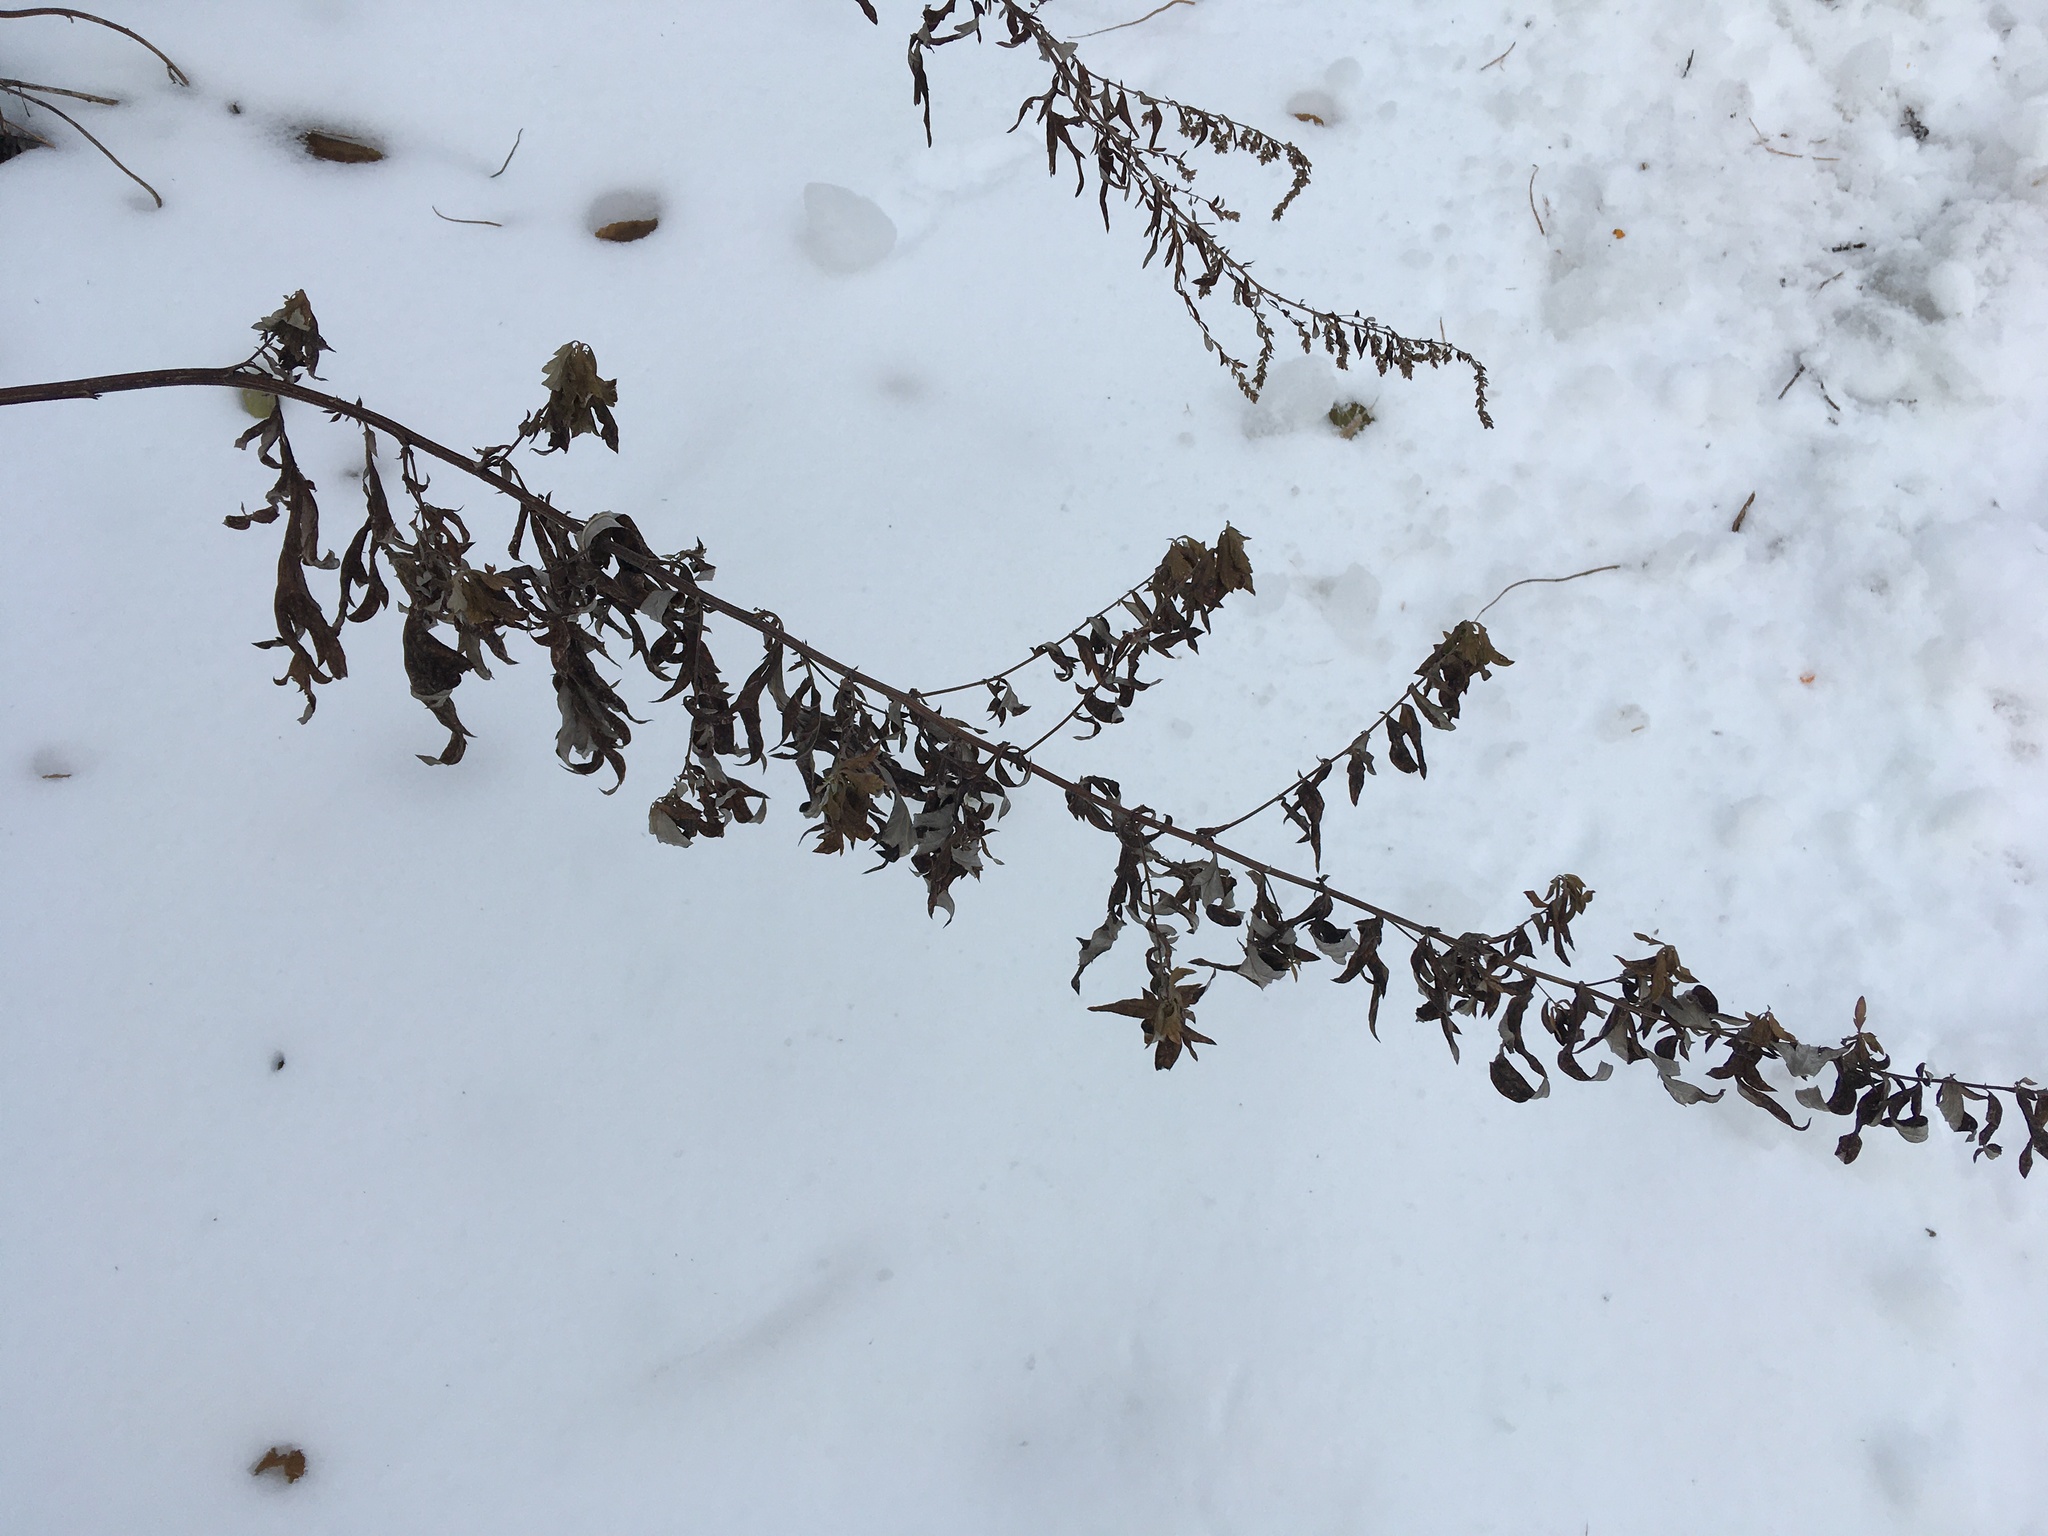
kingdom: Plantae
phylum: Tracheophyta
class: Magnoliopsida
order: Asterales
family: Asteraceae
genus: Artemisia
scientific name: Artemisia vulgaris
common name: Mugwort
